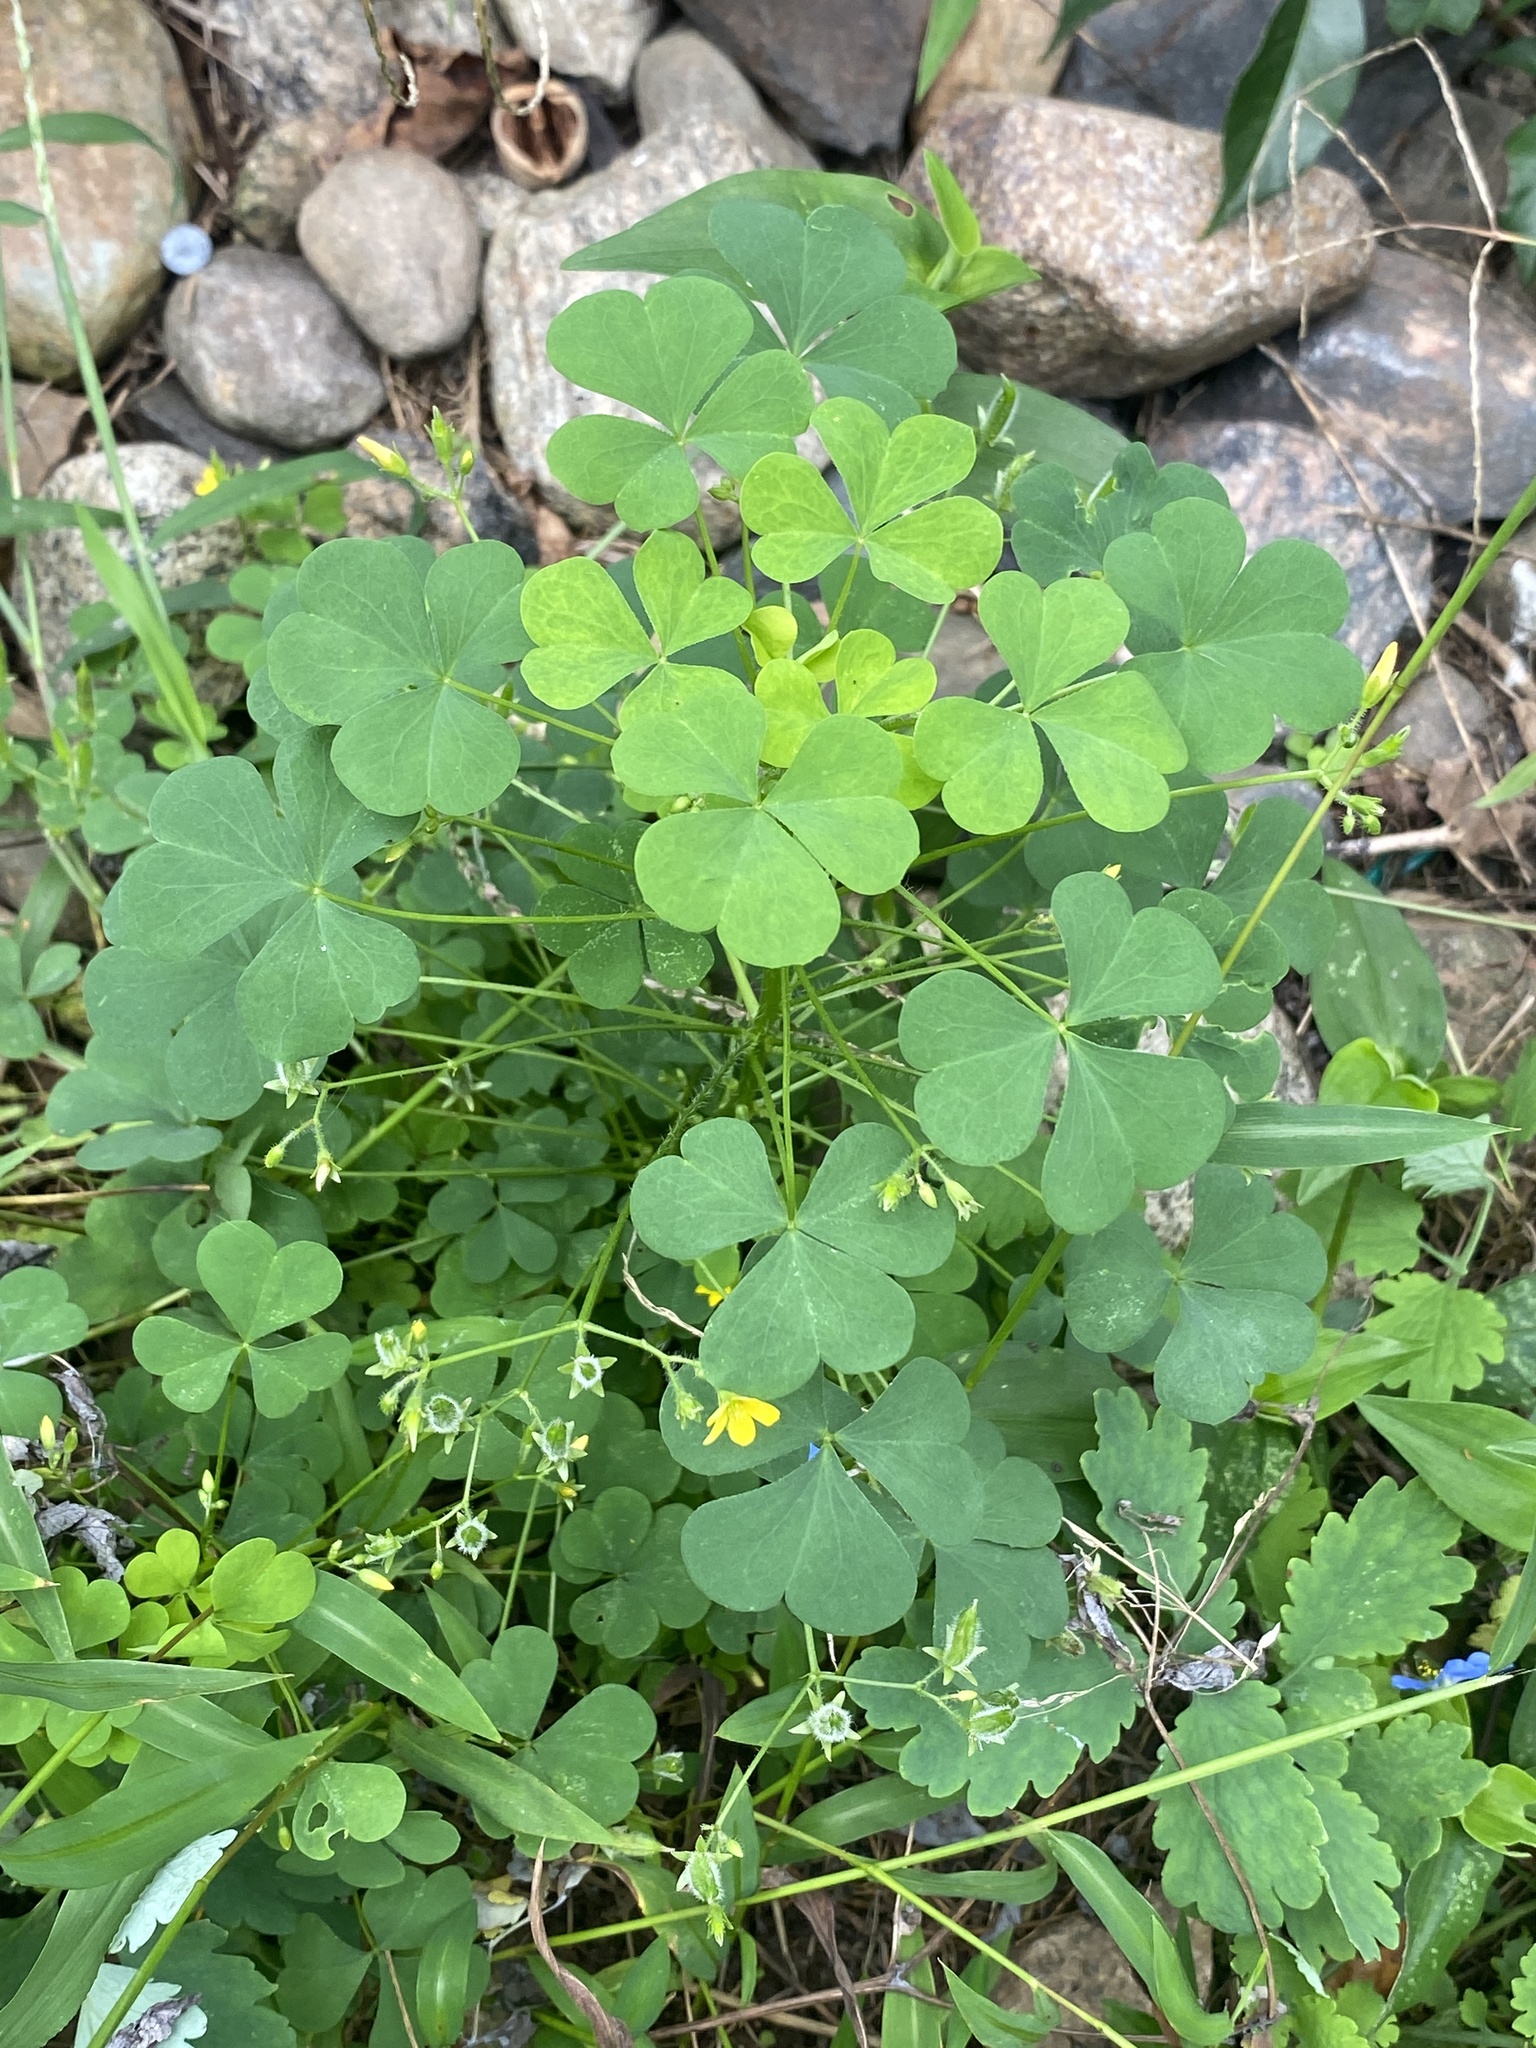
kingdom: Plantae
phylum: Tracheophyta
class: Magnoliopsida
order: Oxalidales
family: Oxalidaceae
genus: Oxalis
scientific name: Oxalis stricta
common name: Upright yellow-sorrel
